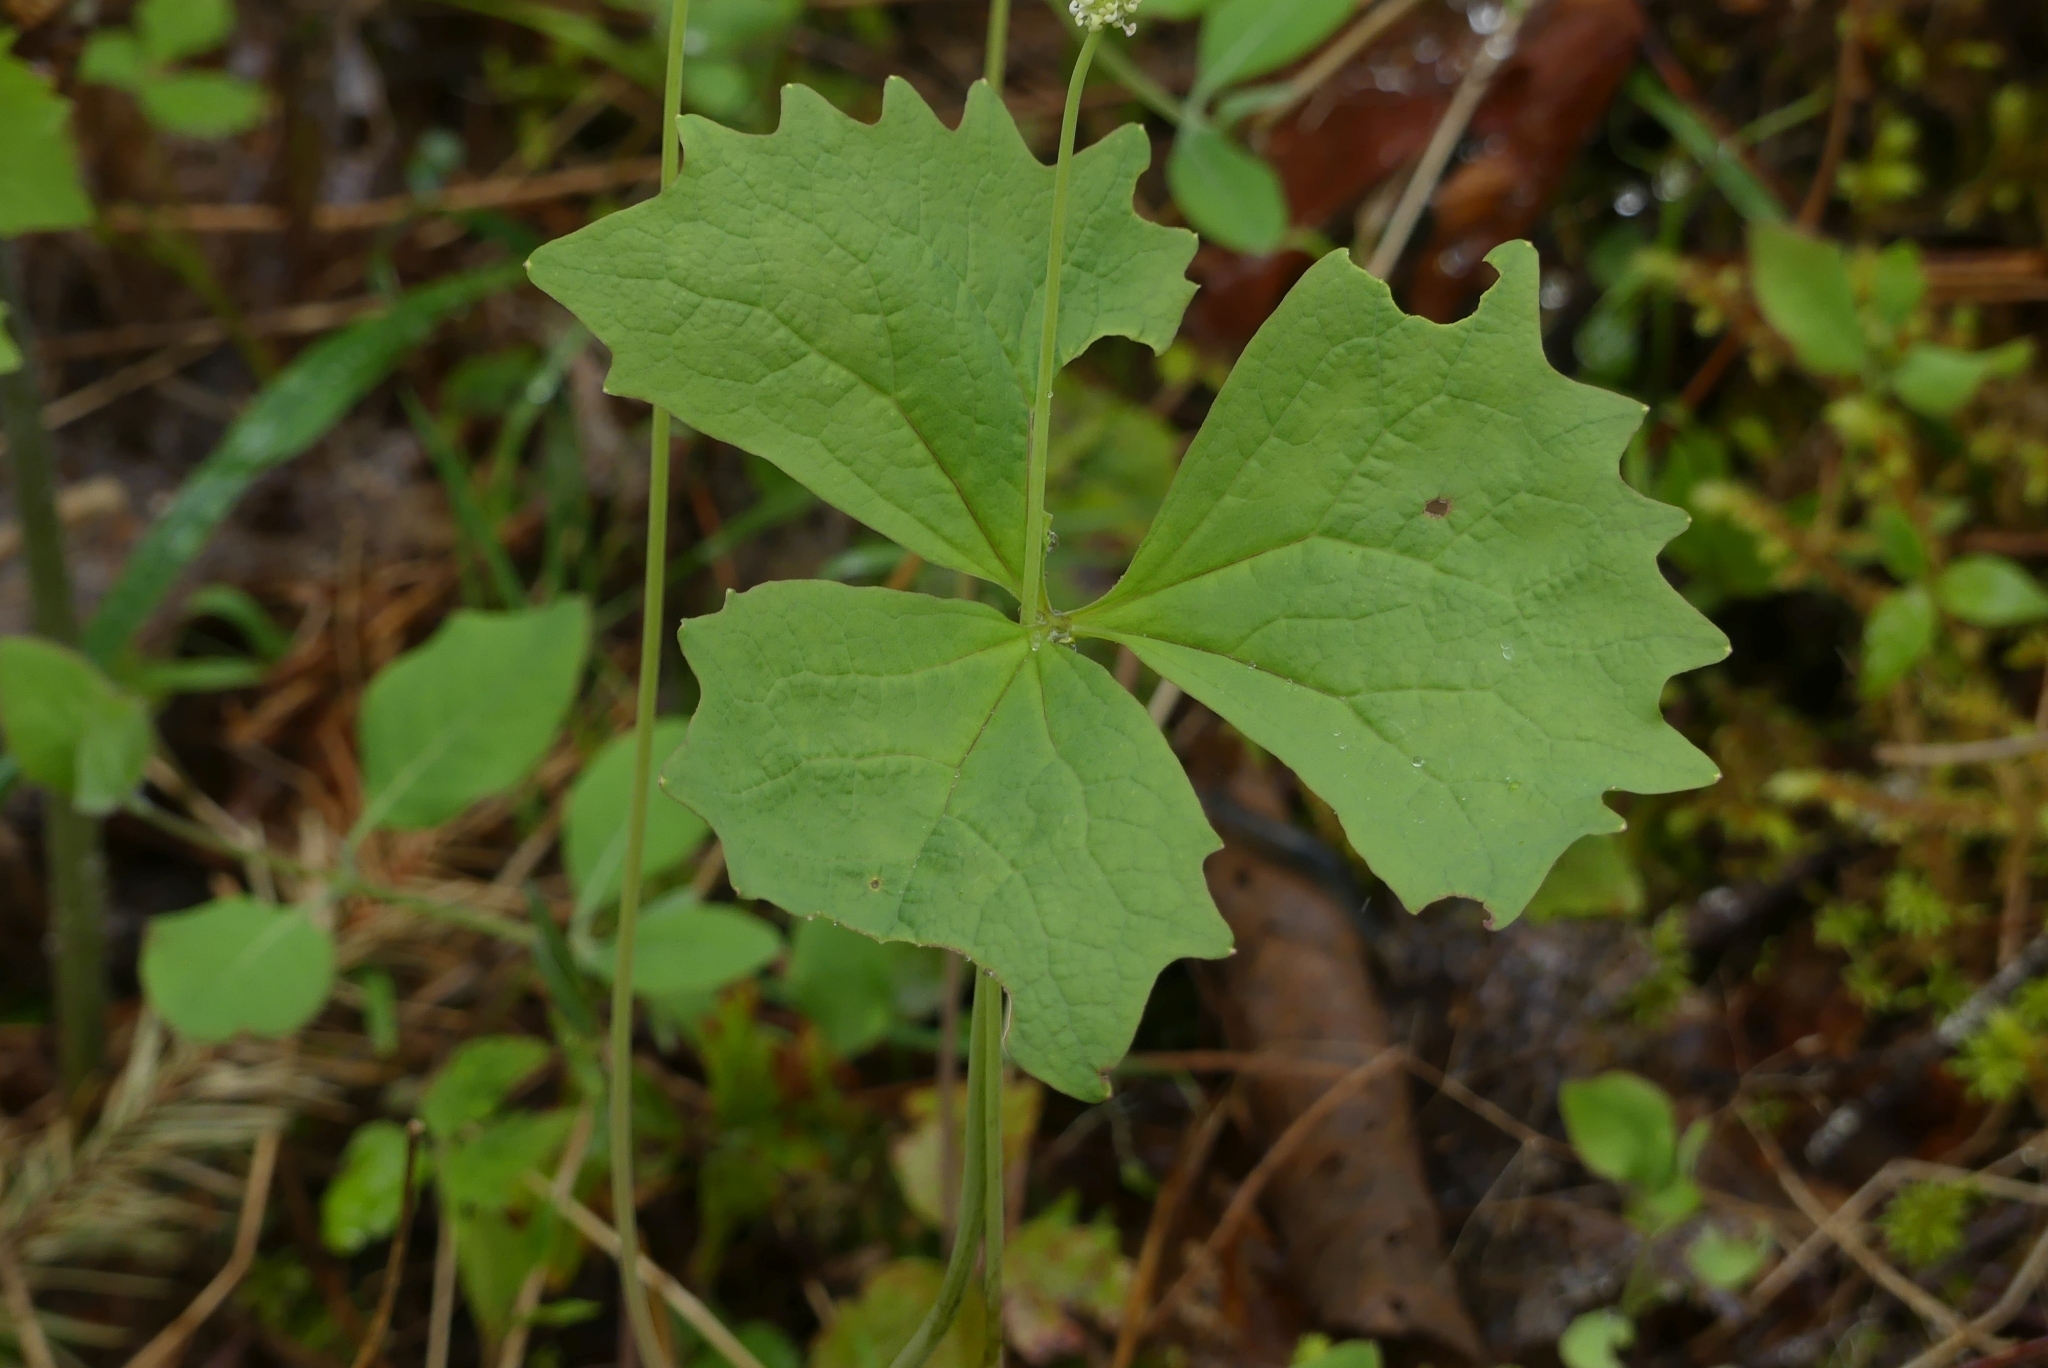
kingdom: Plantae
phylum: Tracheophyta
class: Magnoliopsida
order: Ranunculales
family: Berberidaceae
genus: Achlys
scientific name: Achlys triphylla
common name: Vanilla-leaf
